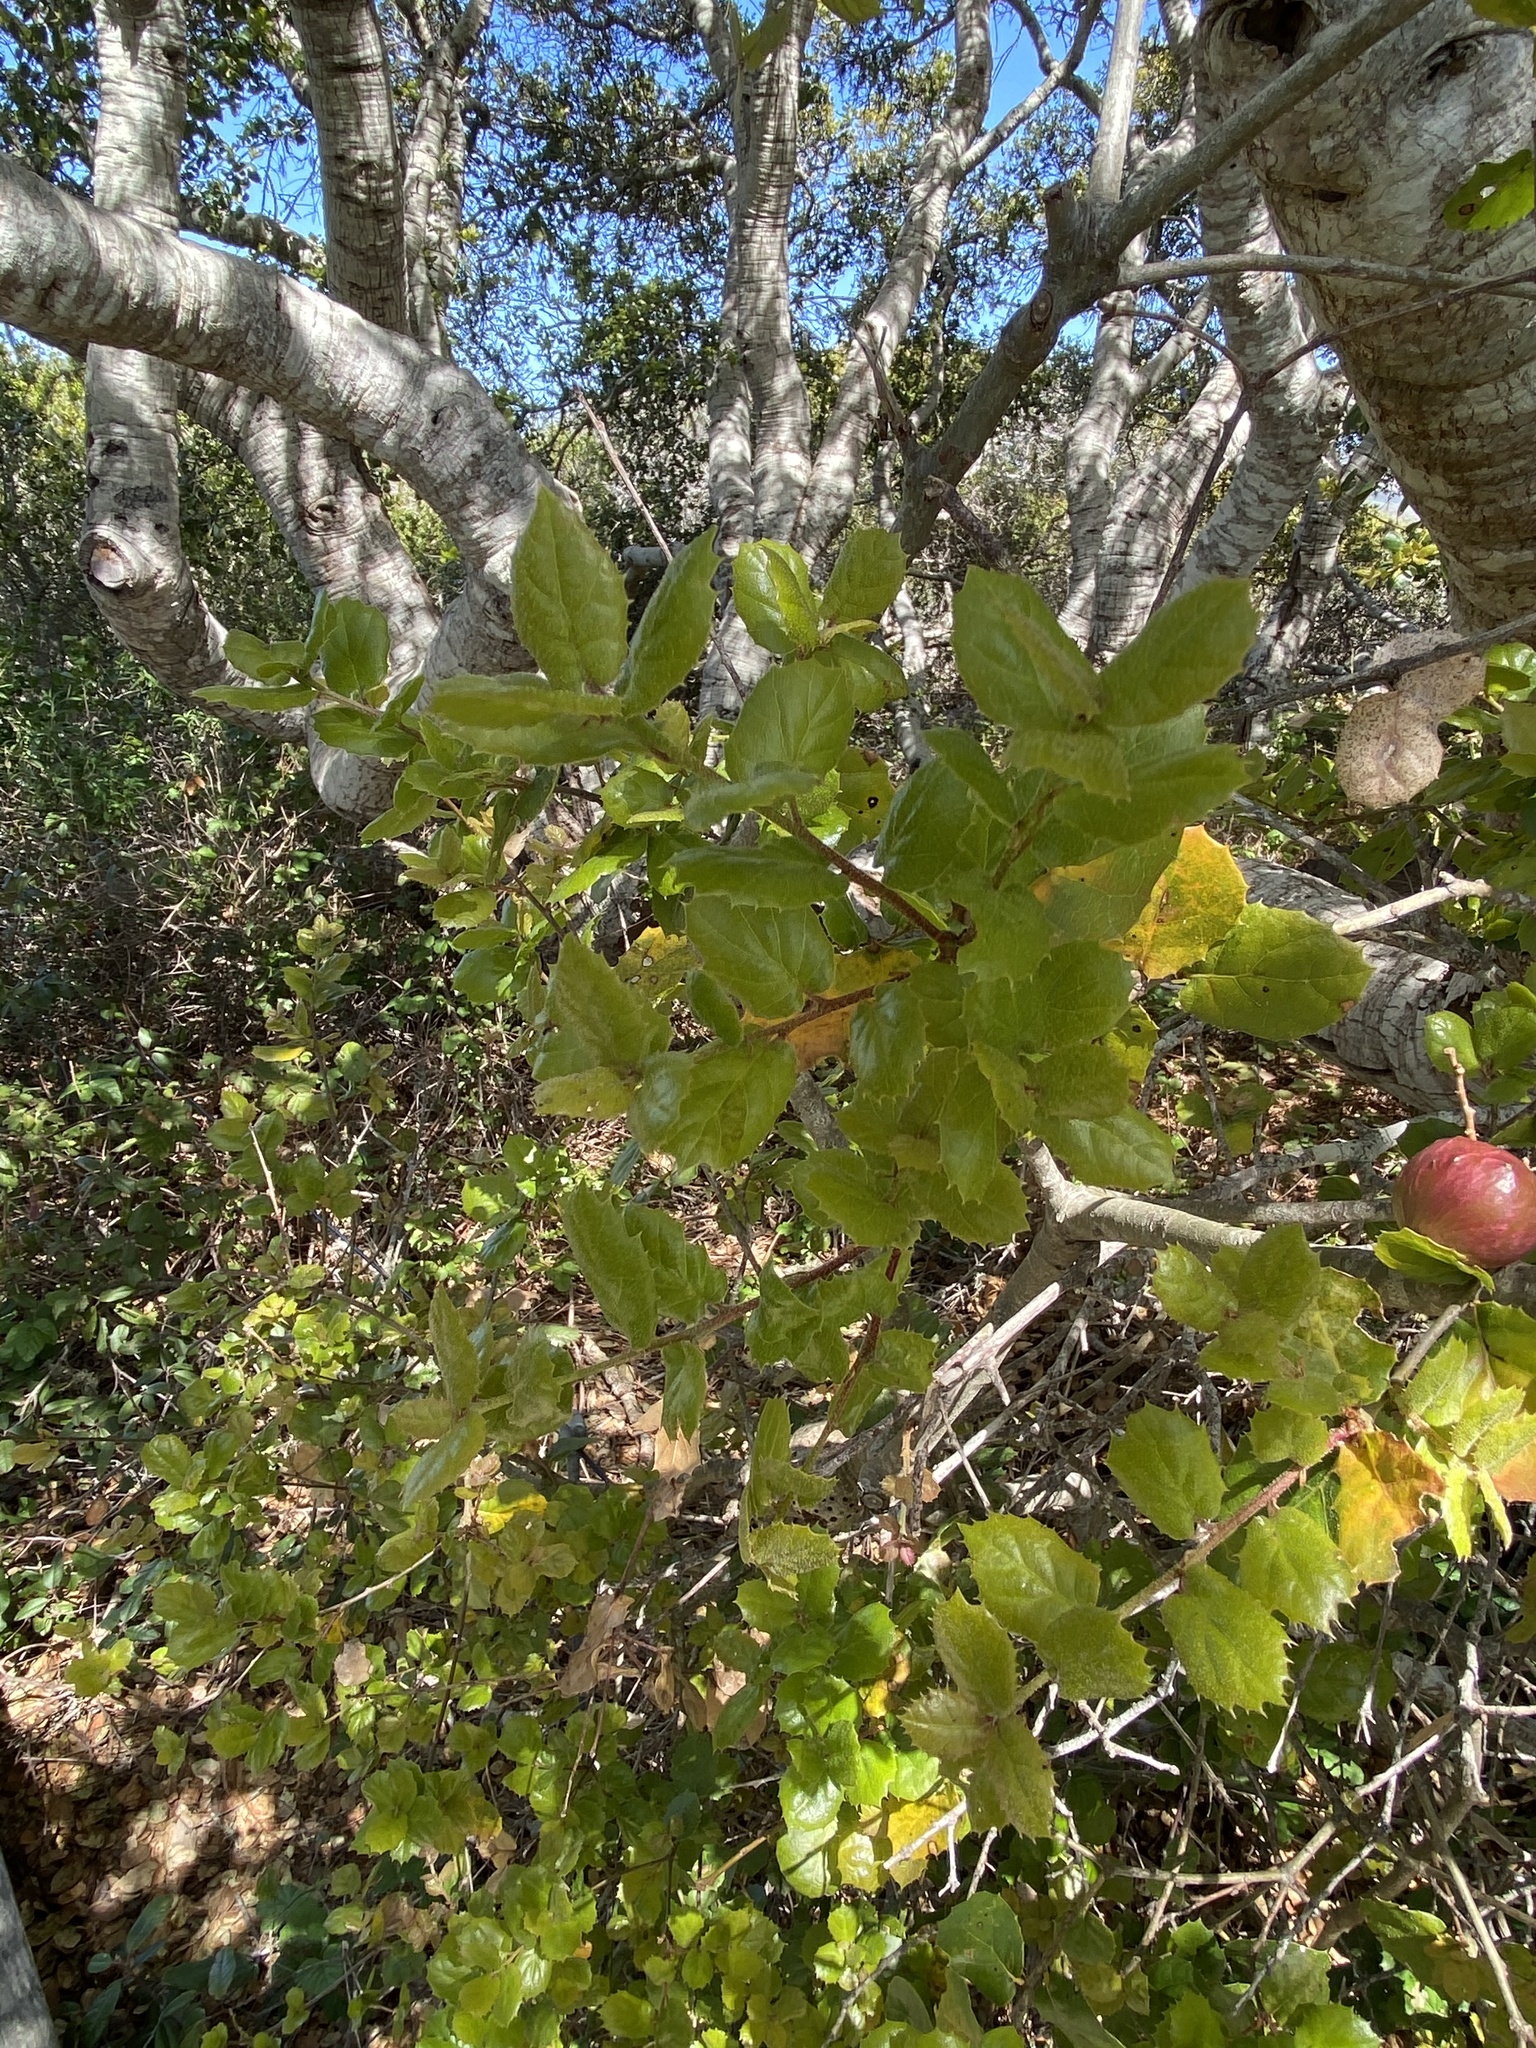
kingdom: Animalia
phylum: Arthropoda
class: Insecta
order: Hymenoptera
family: Cynipidae
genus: Amphibolips
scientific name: Amphibolips quercuspomiformis
